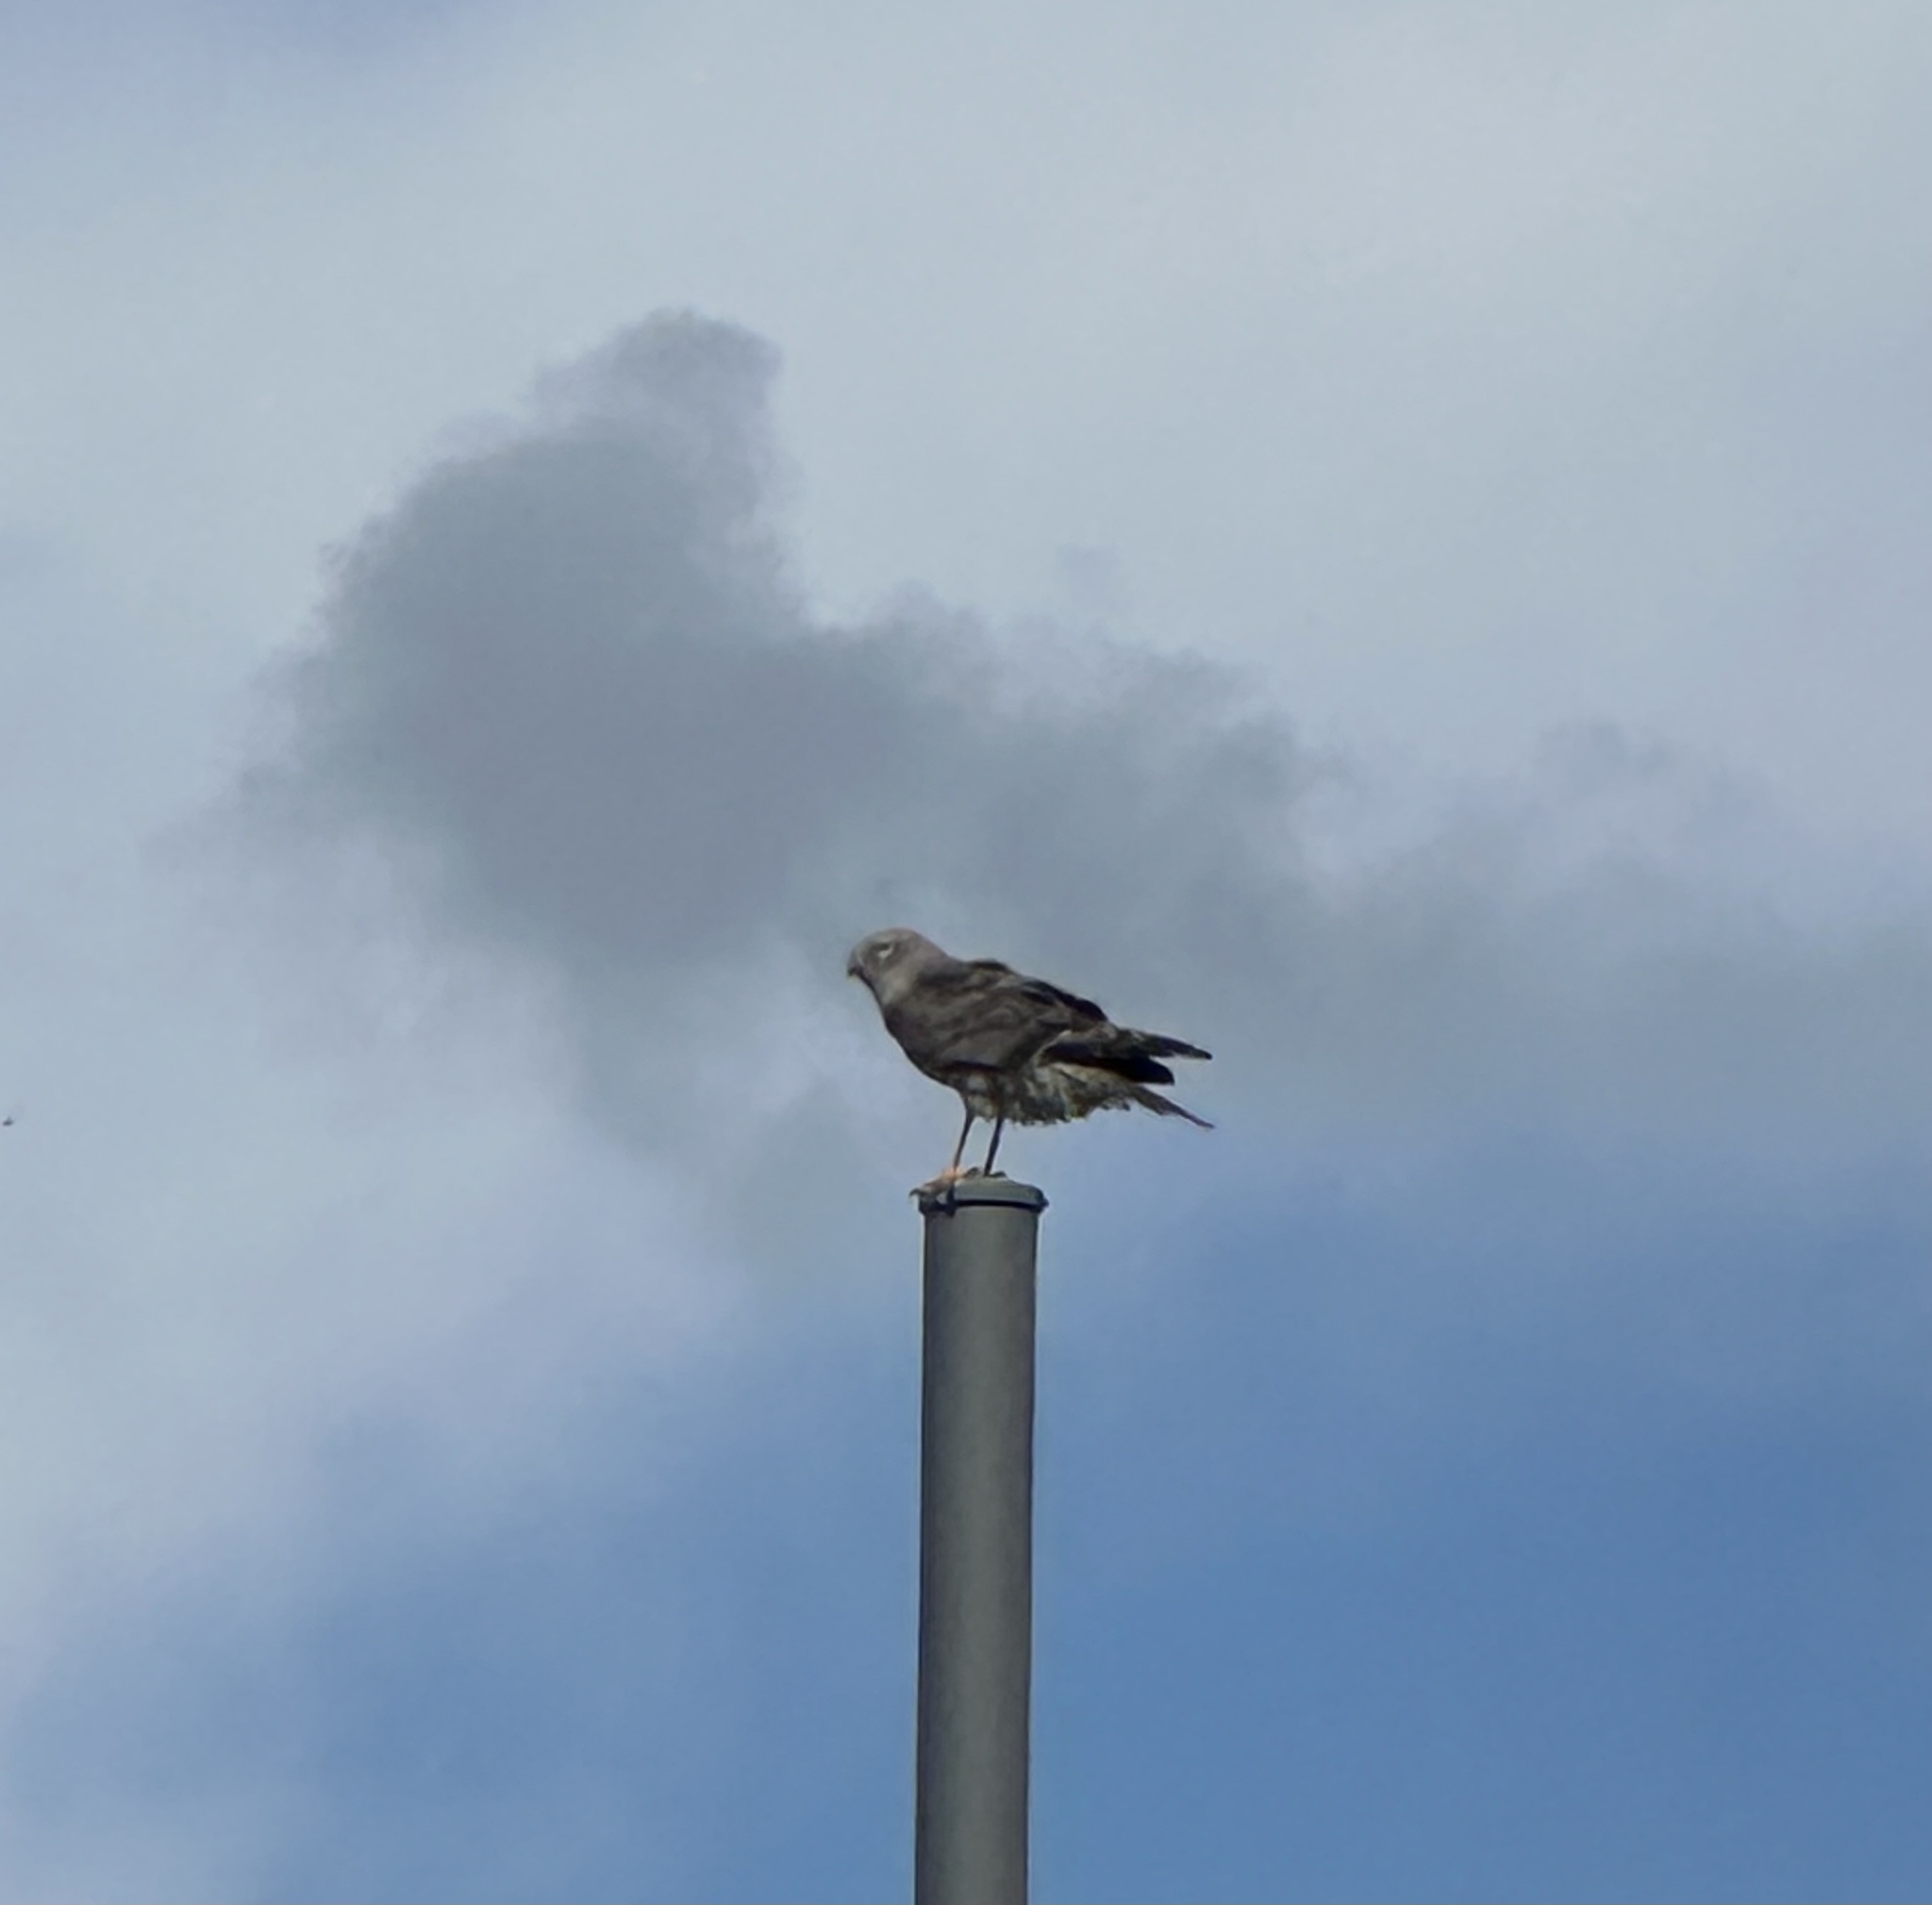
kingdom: Animalia
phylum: Chordata
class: Aves
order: Accipitriformes
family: Accipitridae
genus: Circus
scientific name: Circus cyaneus
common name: Hen harrier
